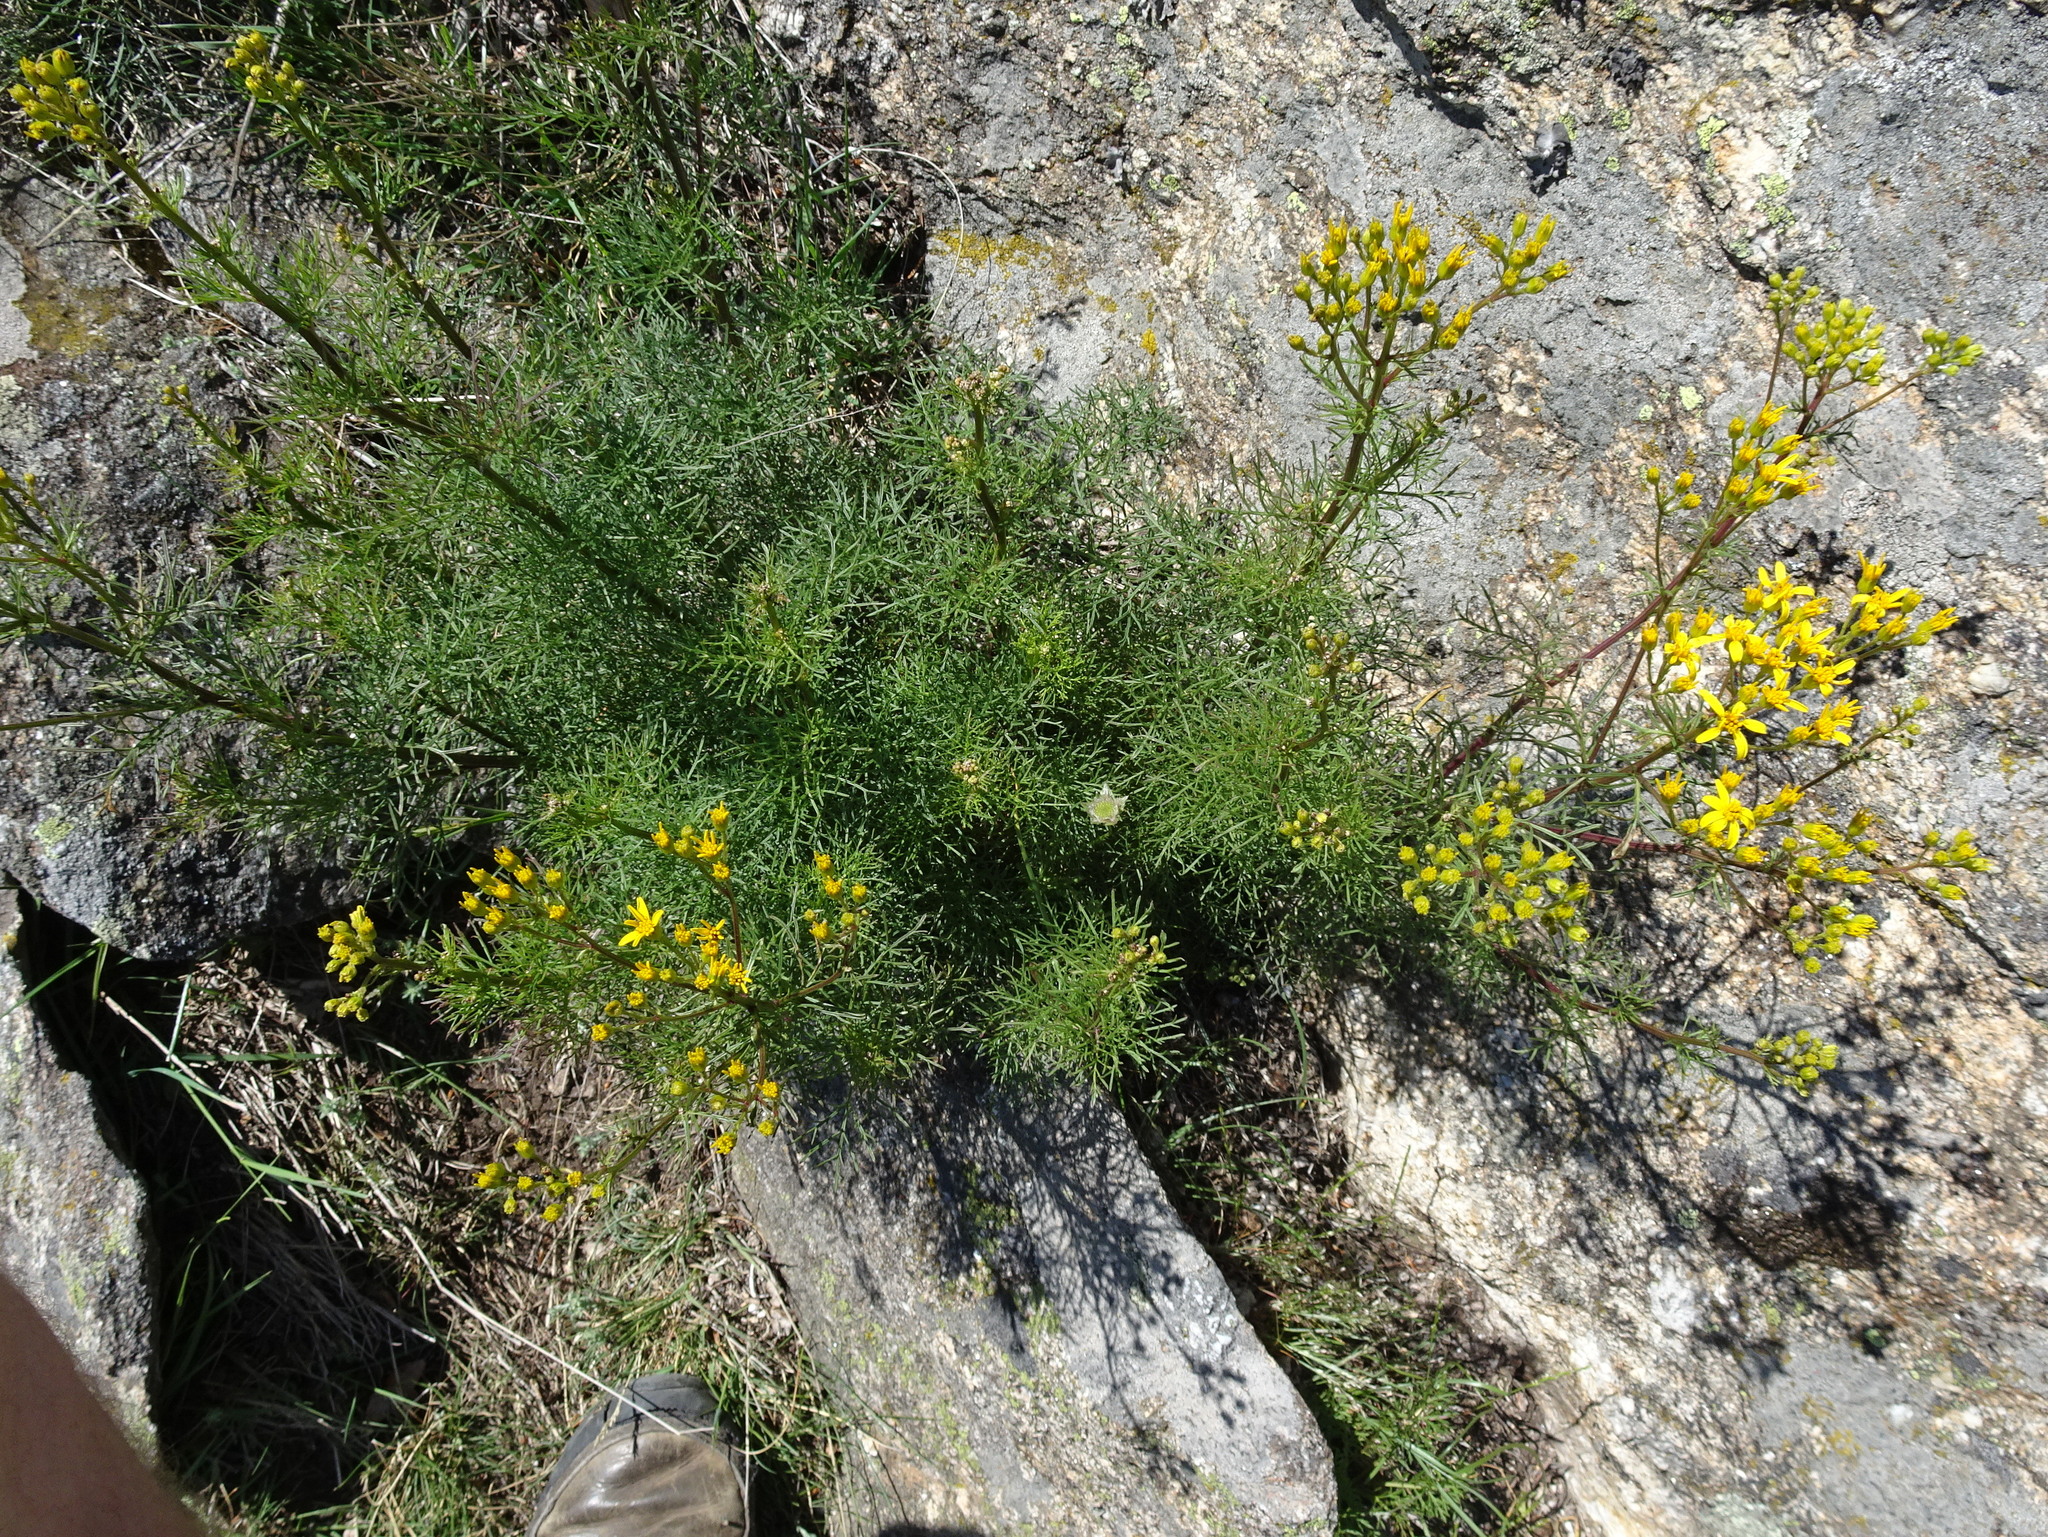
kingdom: Plantae
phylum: Tracheophyta
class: Magnoliopsida
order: Asterales
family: Asteraceae
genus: Jacobaea
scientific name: Jacobaea adonidifolia
